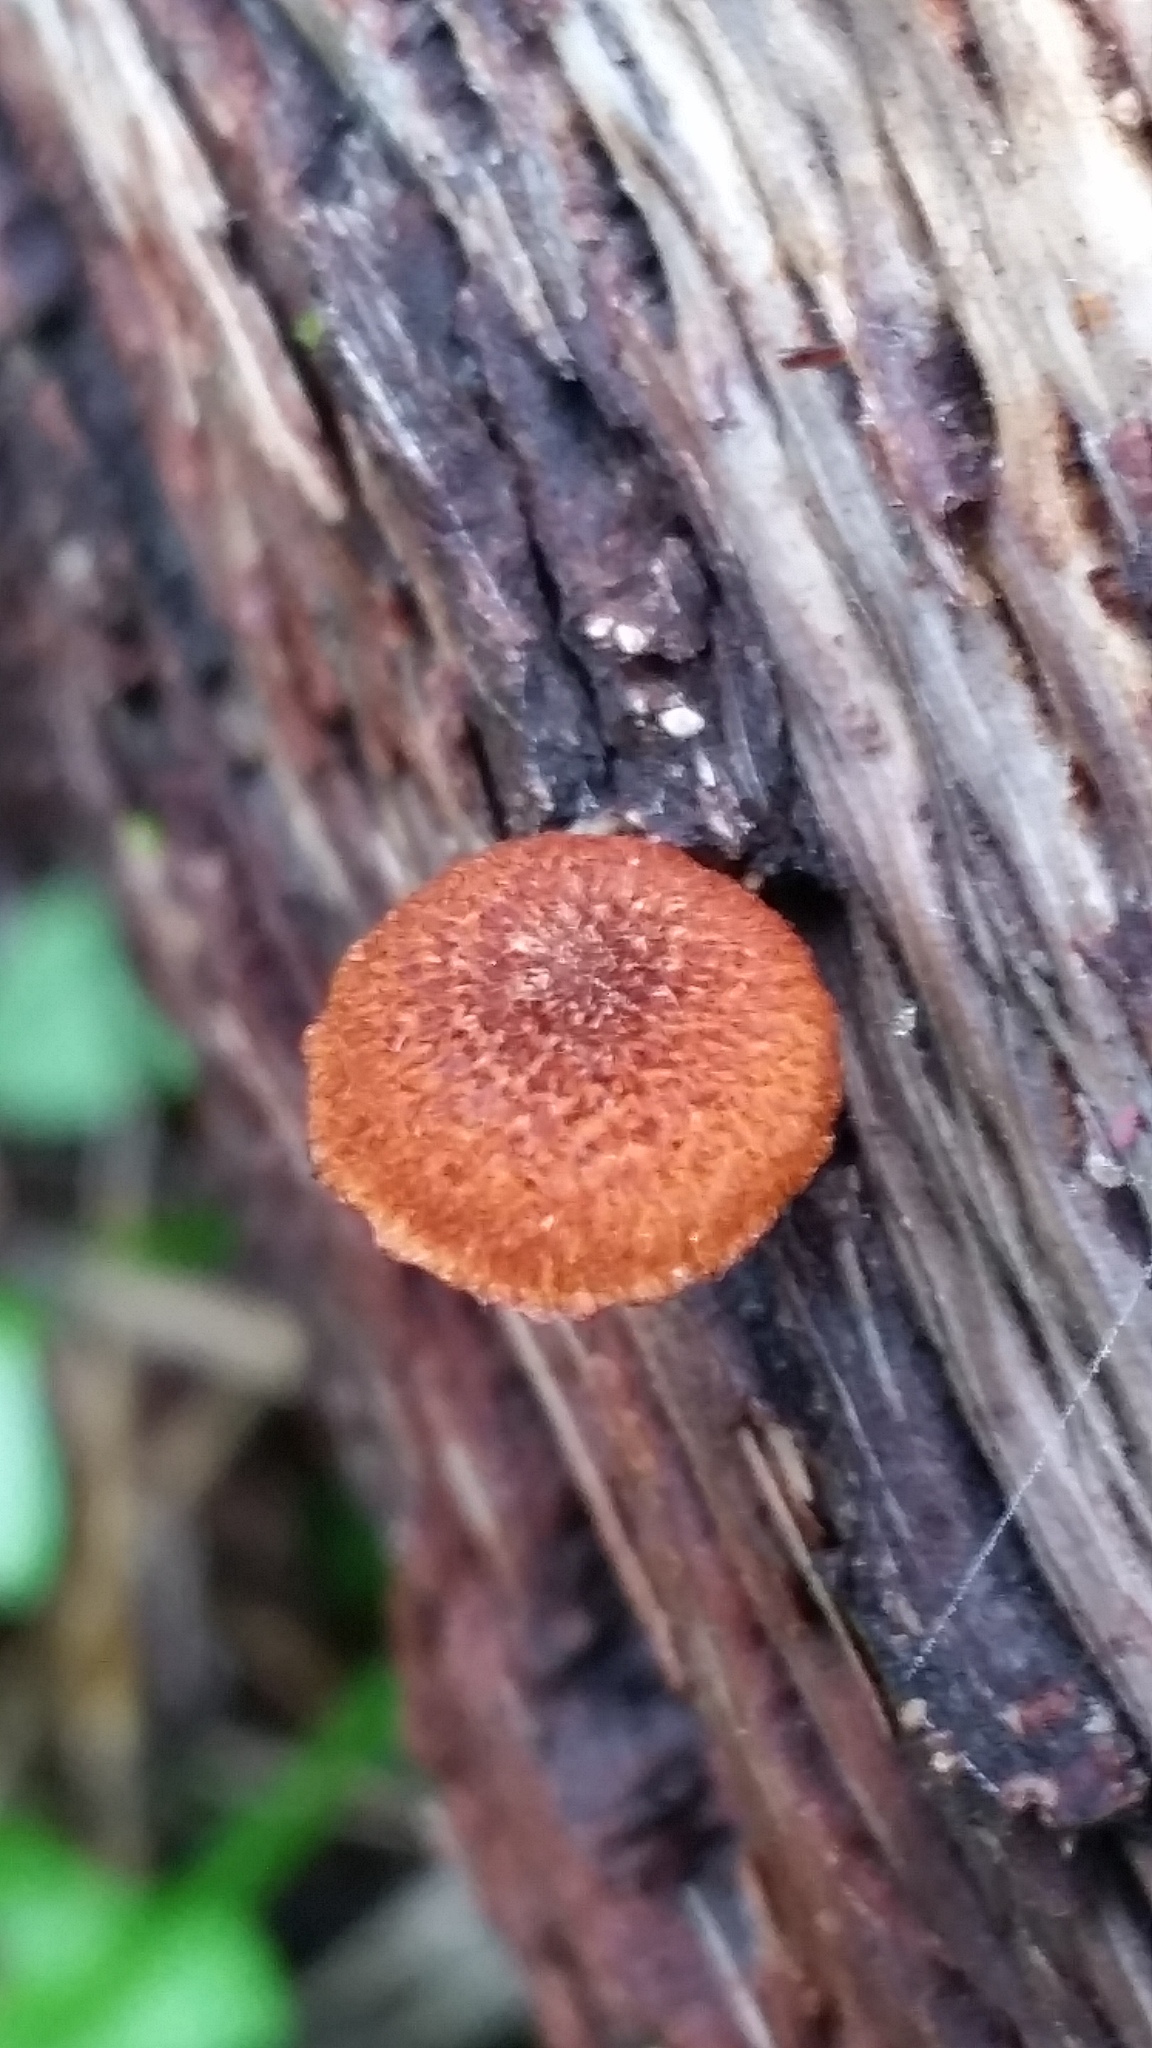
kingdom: Fungi
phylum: Basidiomycota
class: Agaricomycetes
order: Agaricales
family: Hymenogastraceae
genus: Gymnopilus
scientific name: Gymnopilus luteofolius
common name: Yellow-gilled gymnopilus
